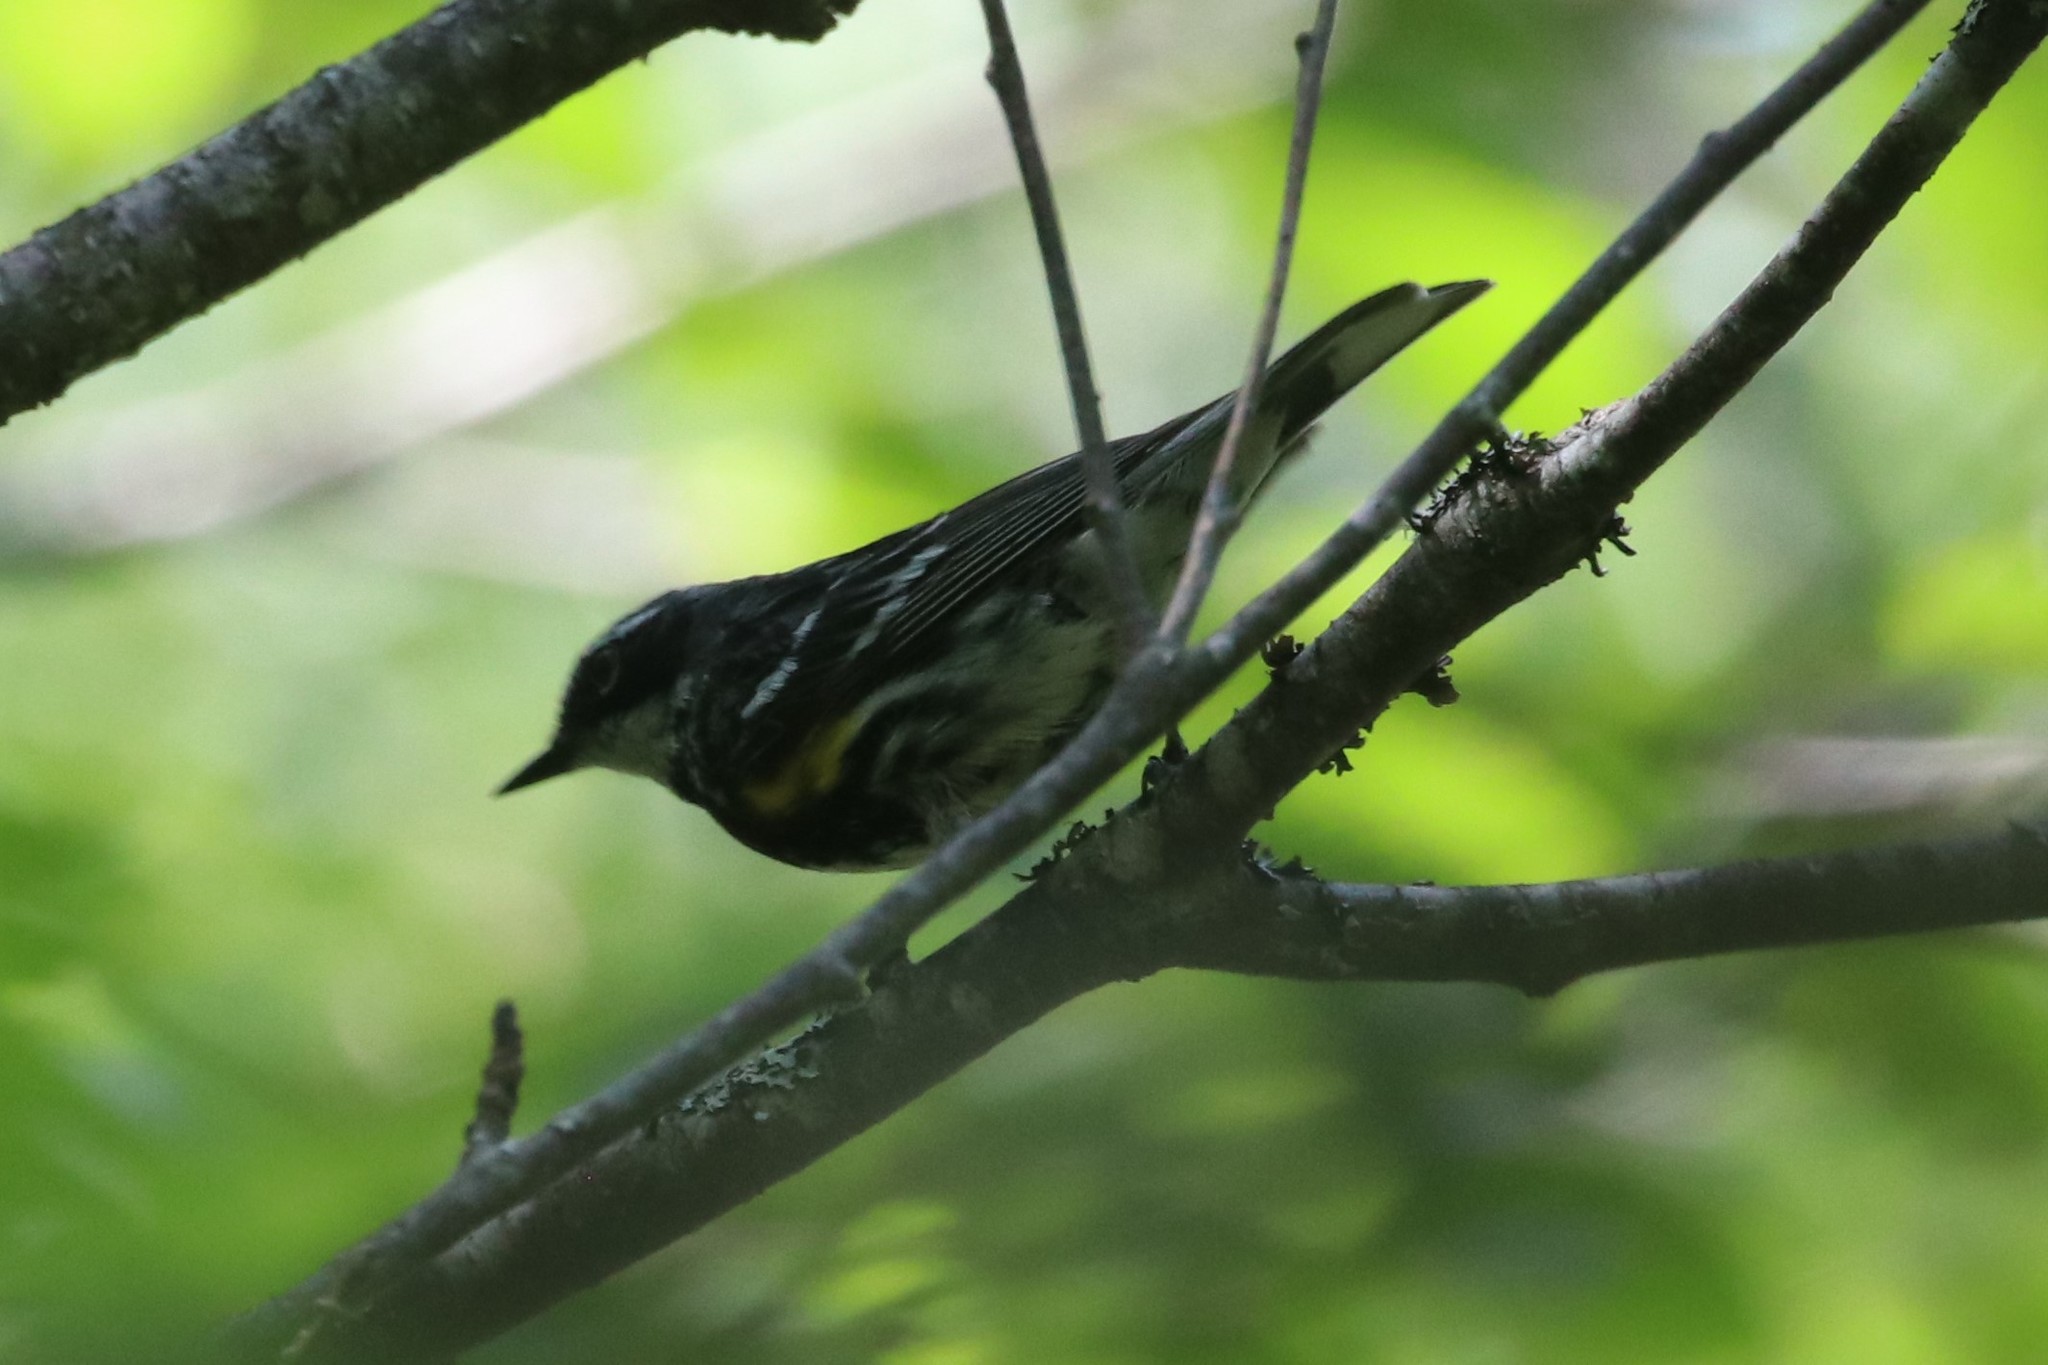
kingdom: Animalia
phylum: Chordata
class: Aves
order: Passeriformes
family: Parulidae
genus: Setophaga
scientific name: Setophaga coronata
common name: Myrtle warbler
